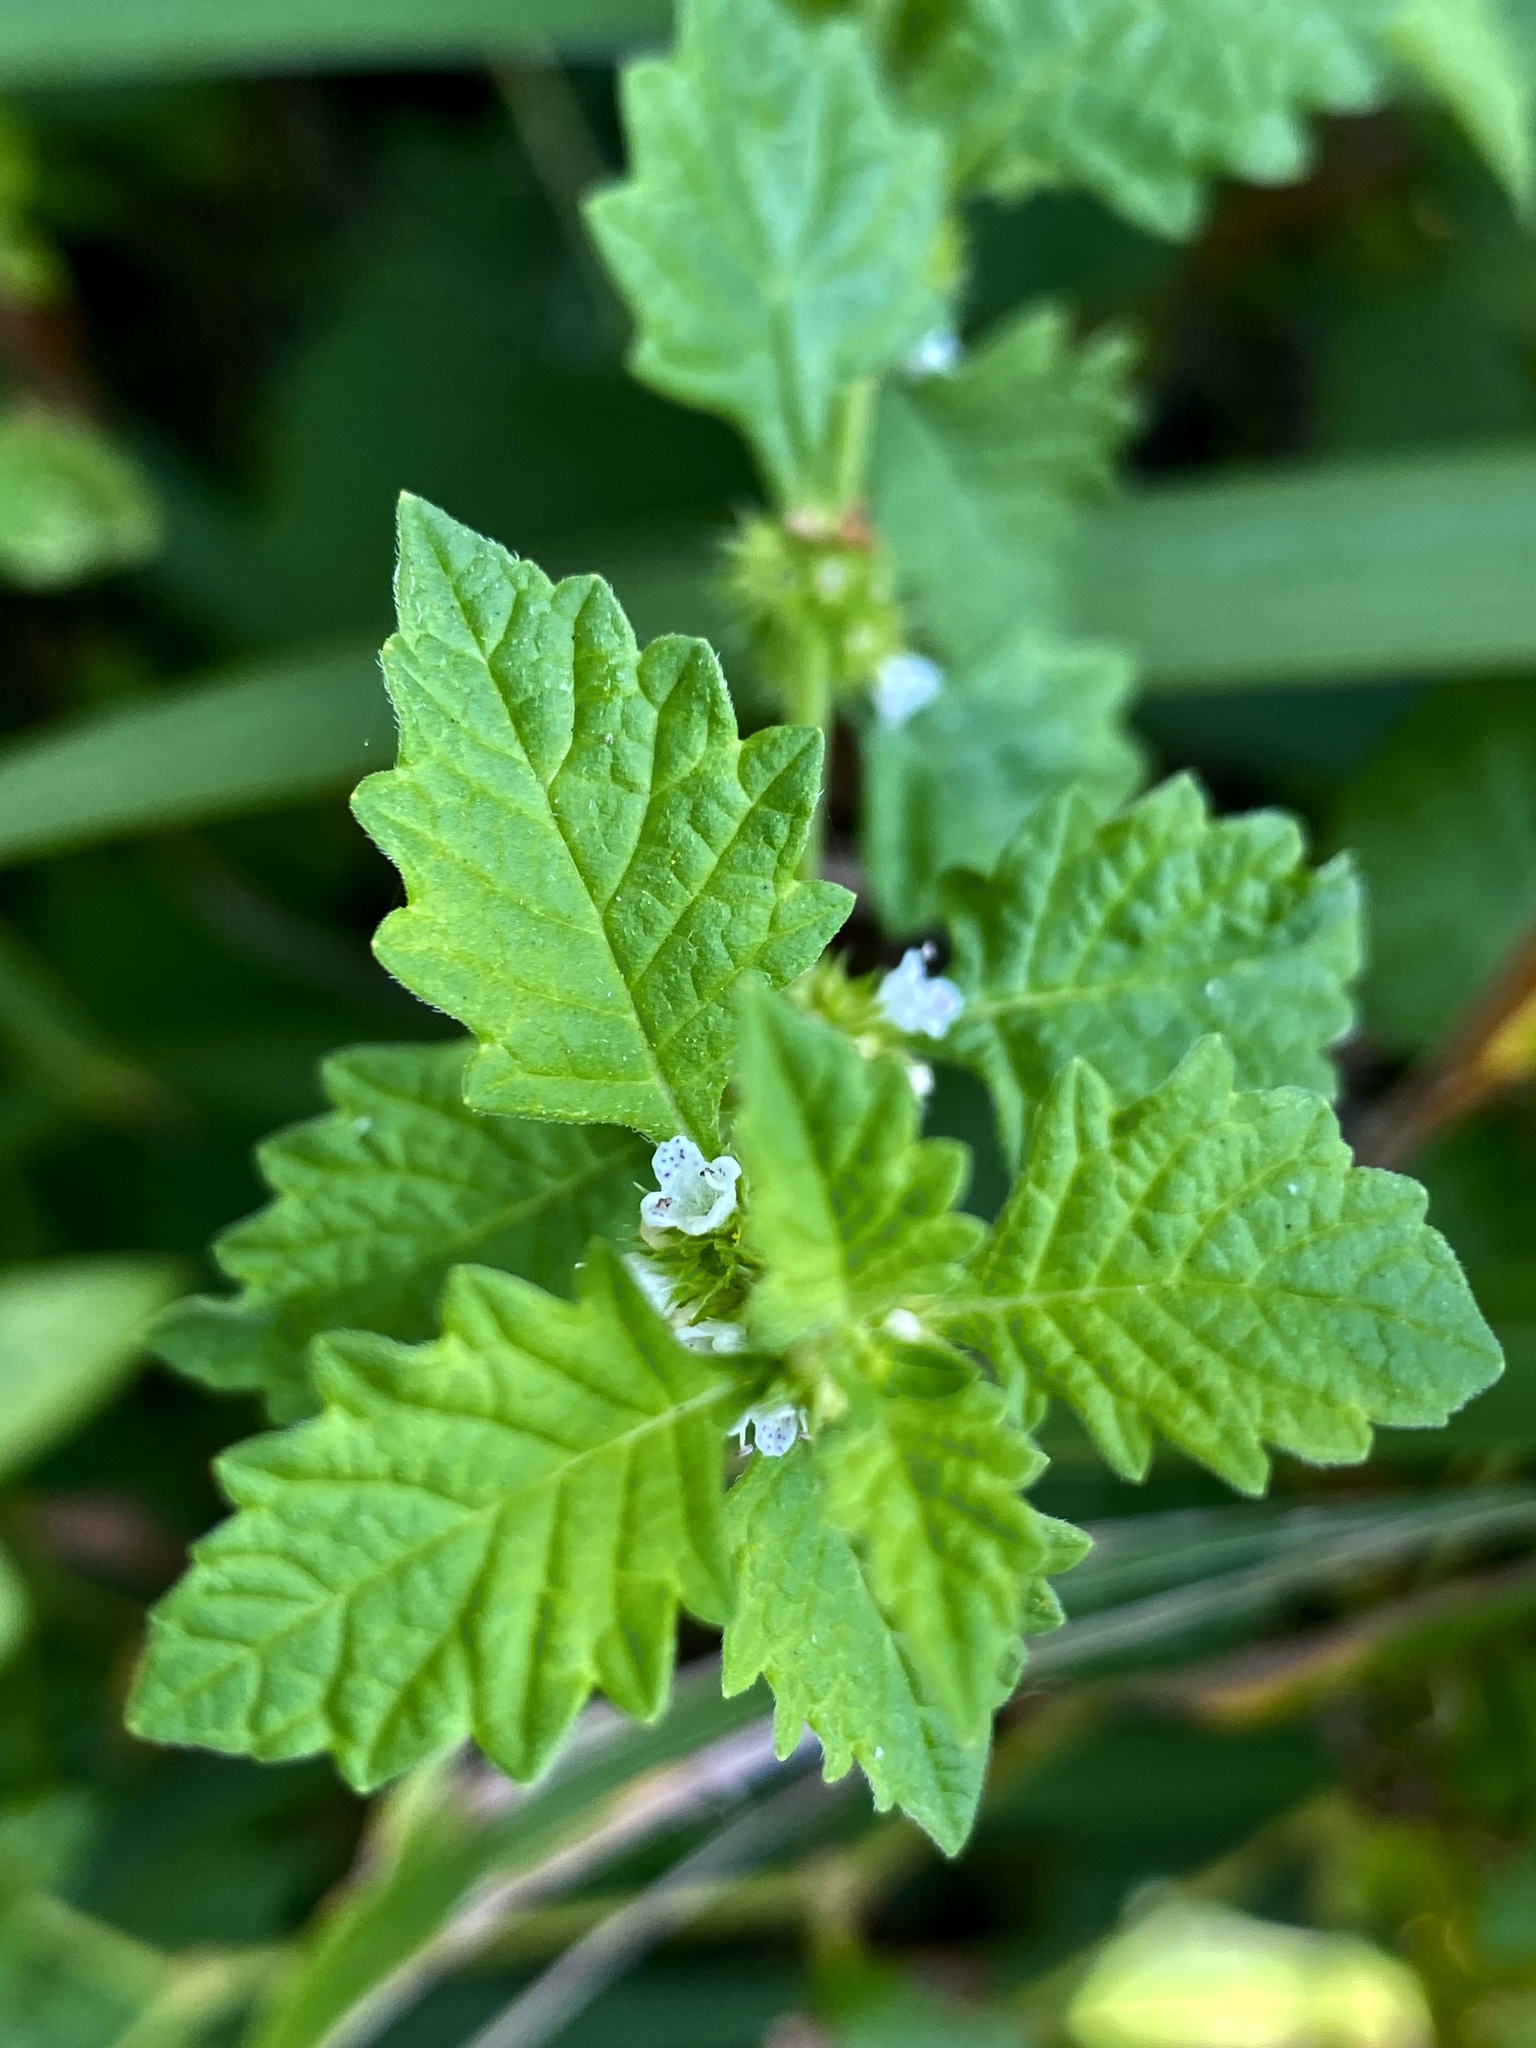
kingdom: Plantae
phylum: Tracheophyta
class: Magnoliopsida
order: Lamiales
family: Lamiaceae
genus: Lycopus
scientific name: Lycopus europaeus
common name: European bugleweed
